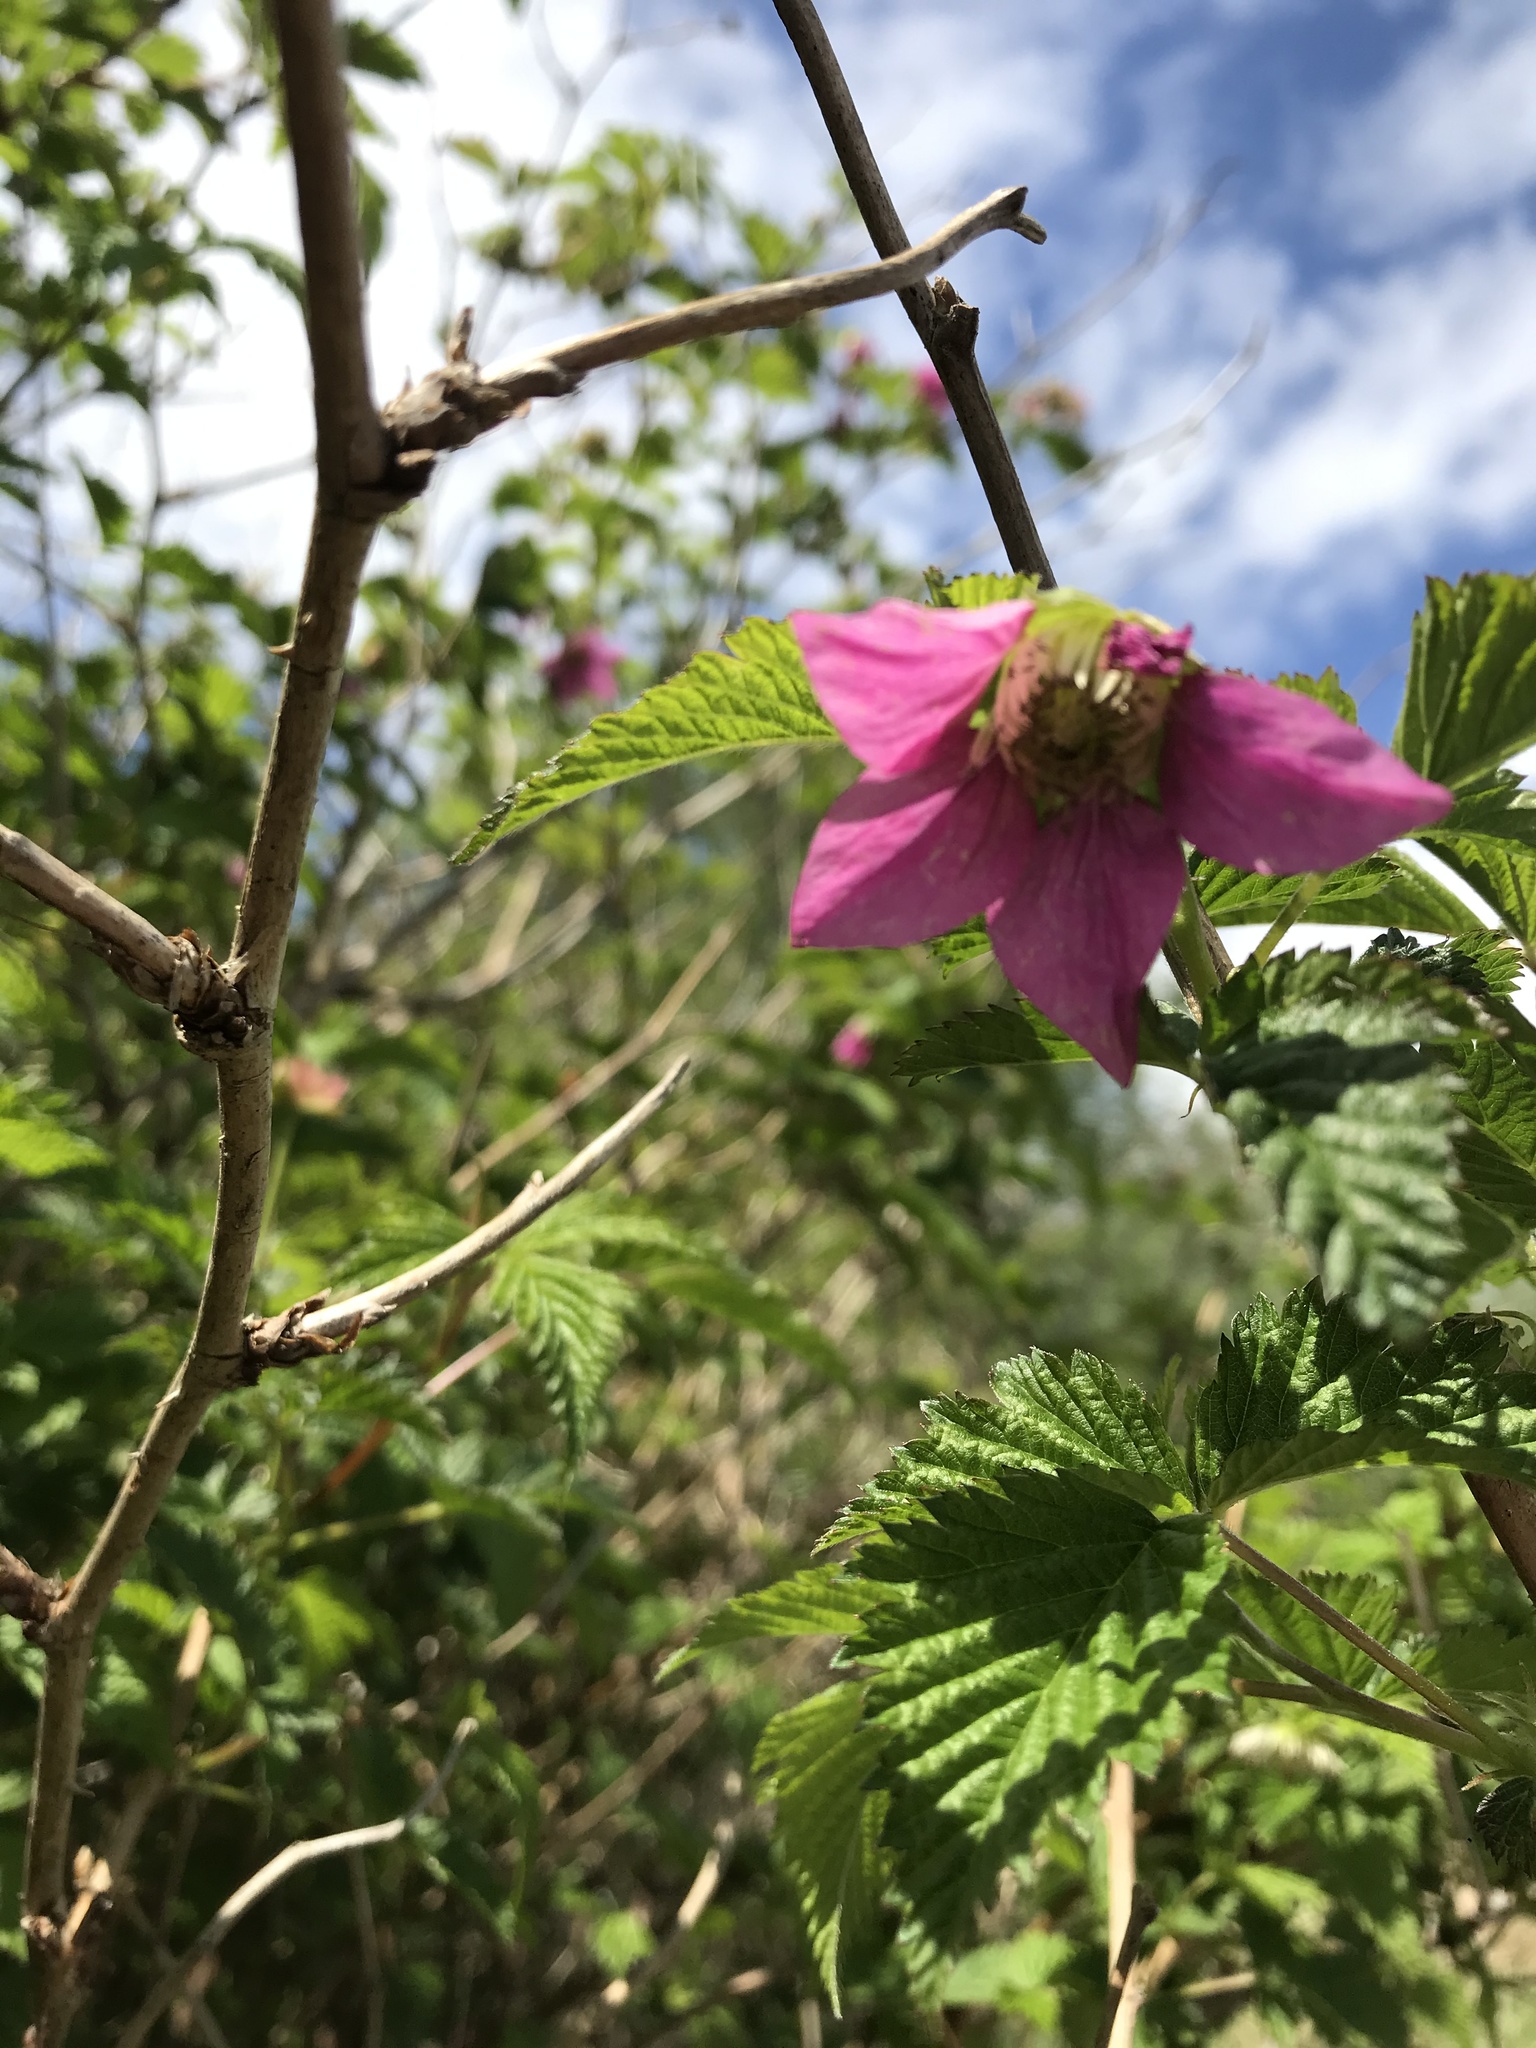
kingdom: Plantae
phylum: Tracheophyta
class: Magnoliopsida
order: Rosales
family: Rosaceae
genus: Rubus
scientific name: Rubus spectabilis
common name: Salmonberry
